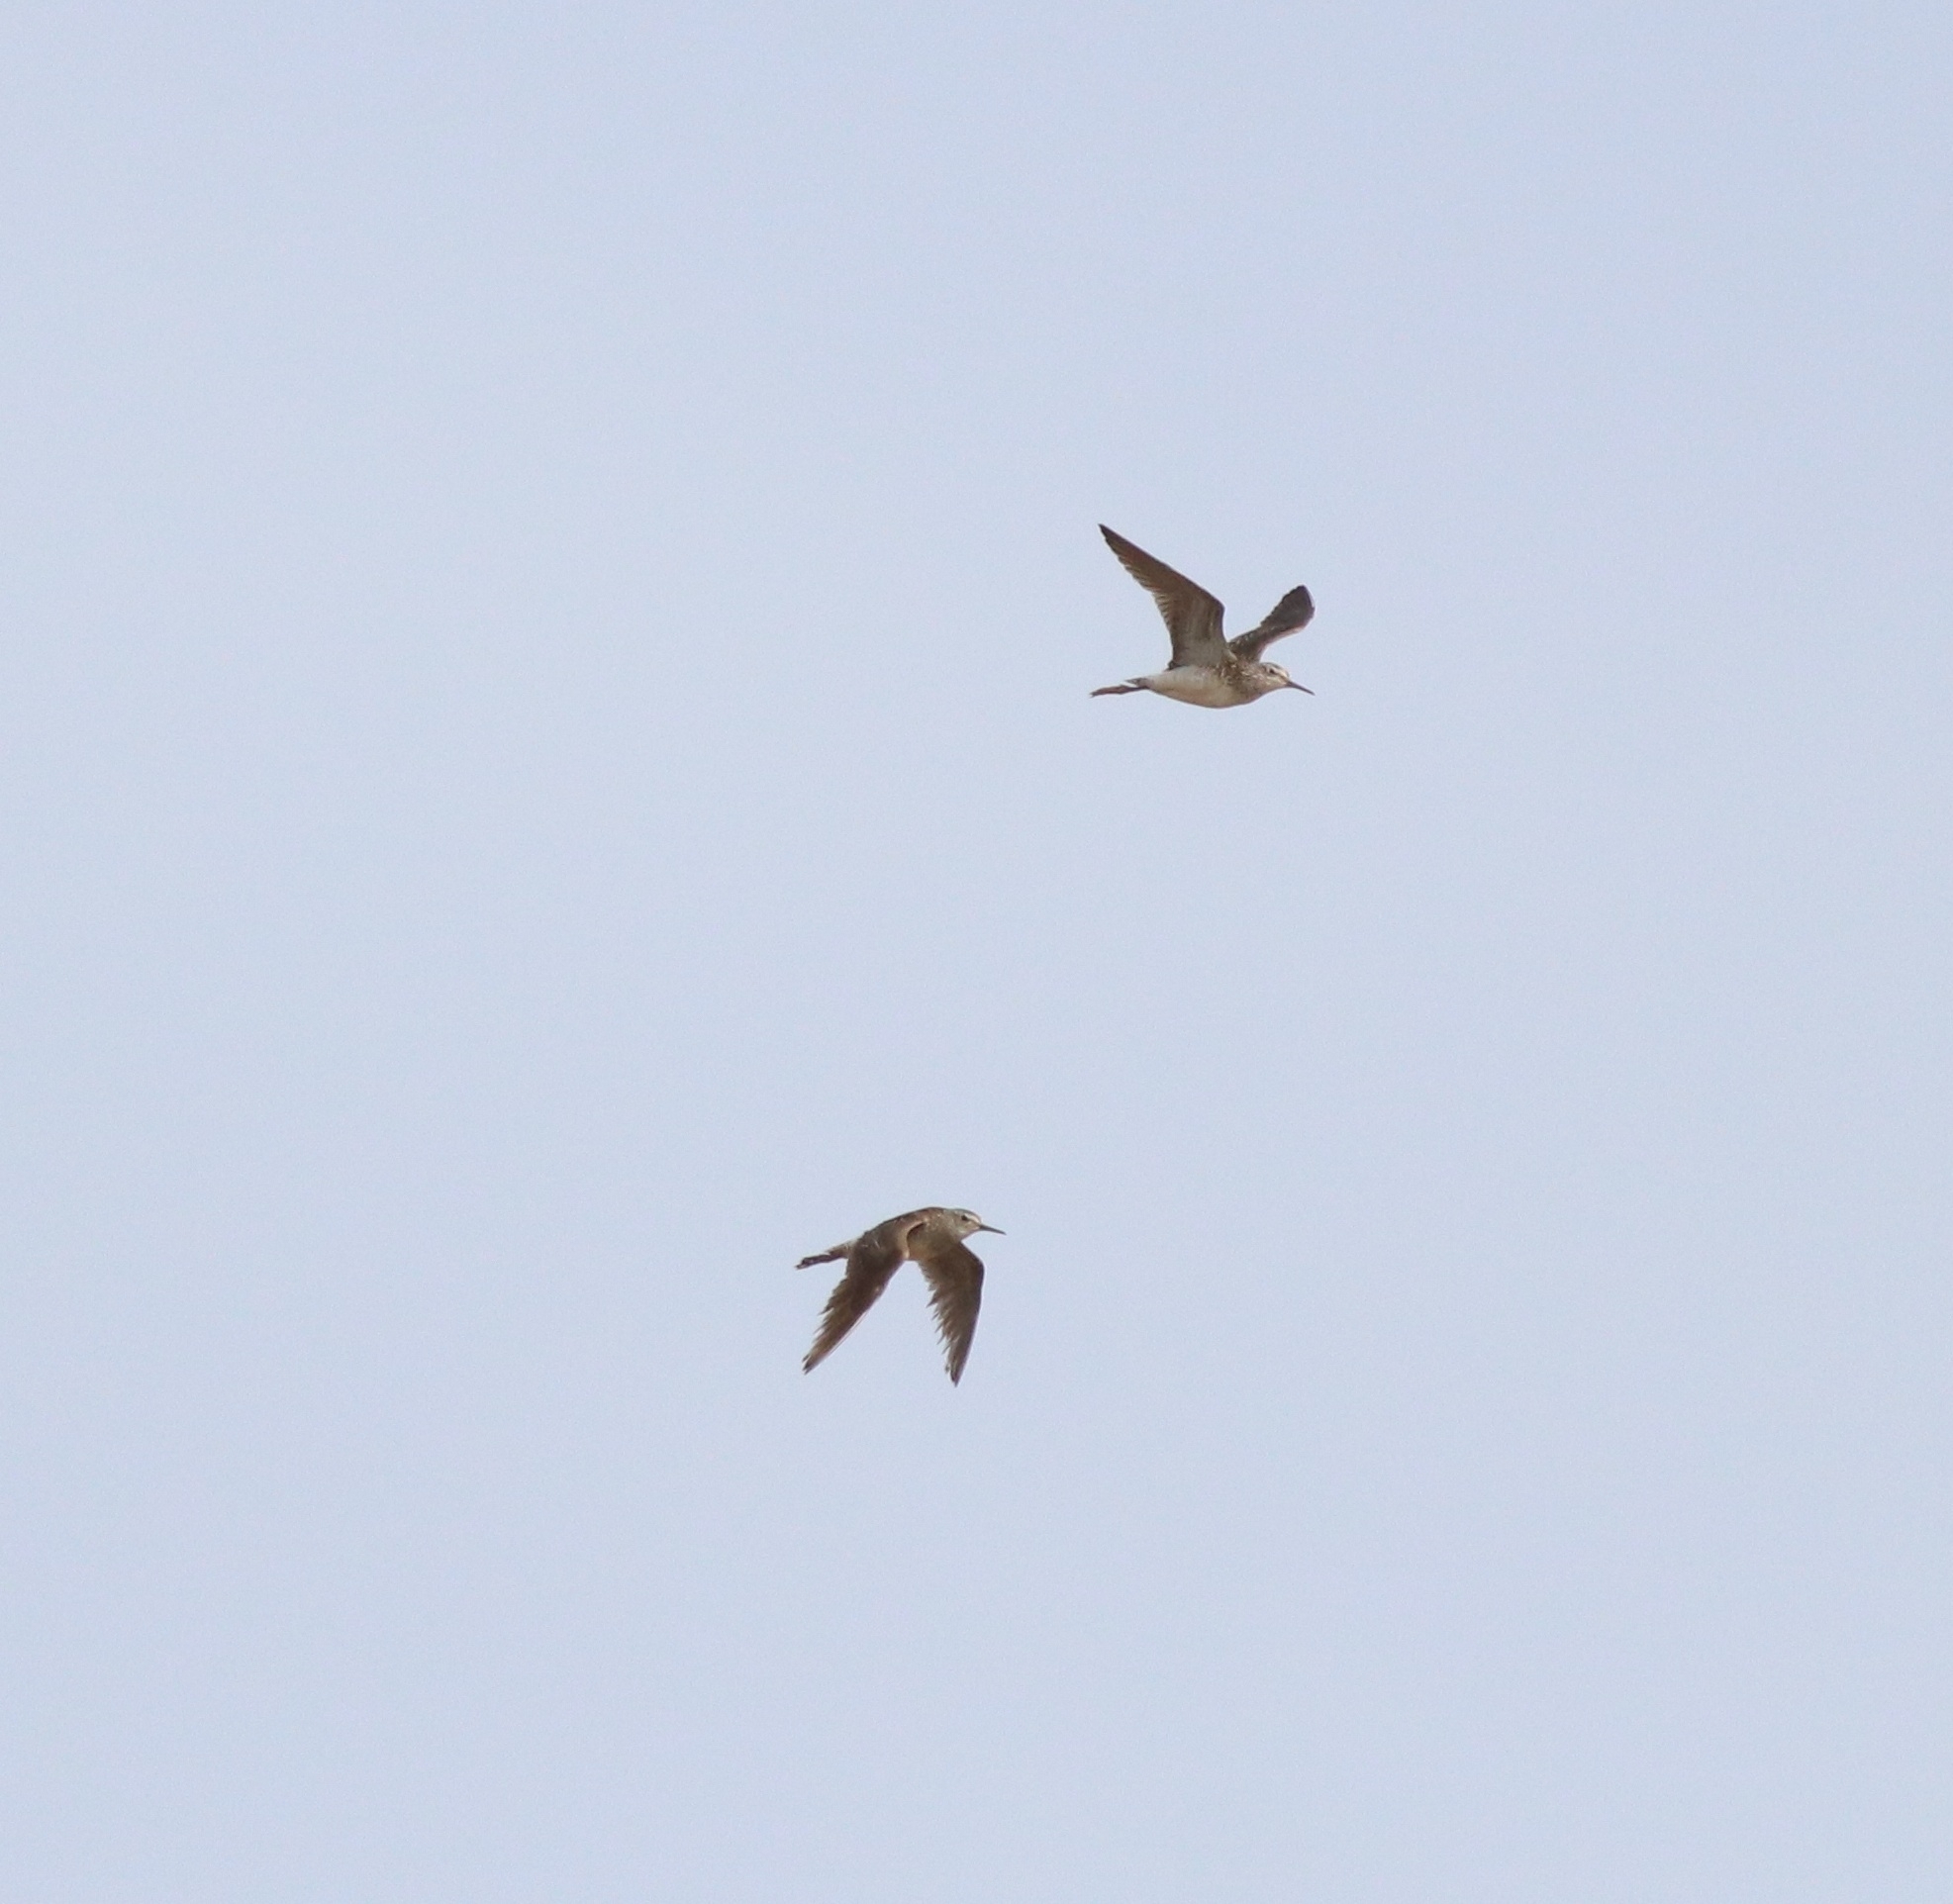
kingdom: Animalia
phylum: Chordata
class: Aves
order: Charadriiformes
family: Scolopacidae
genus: Tringa
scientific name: Tringa glareola
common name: Wood sandpiper
